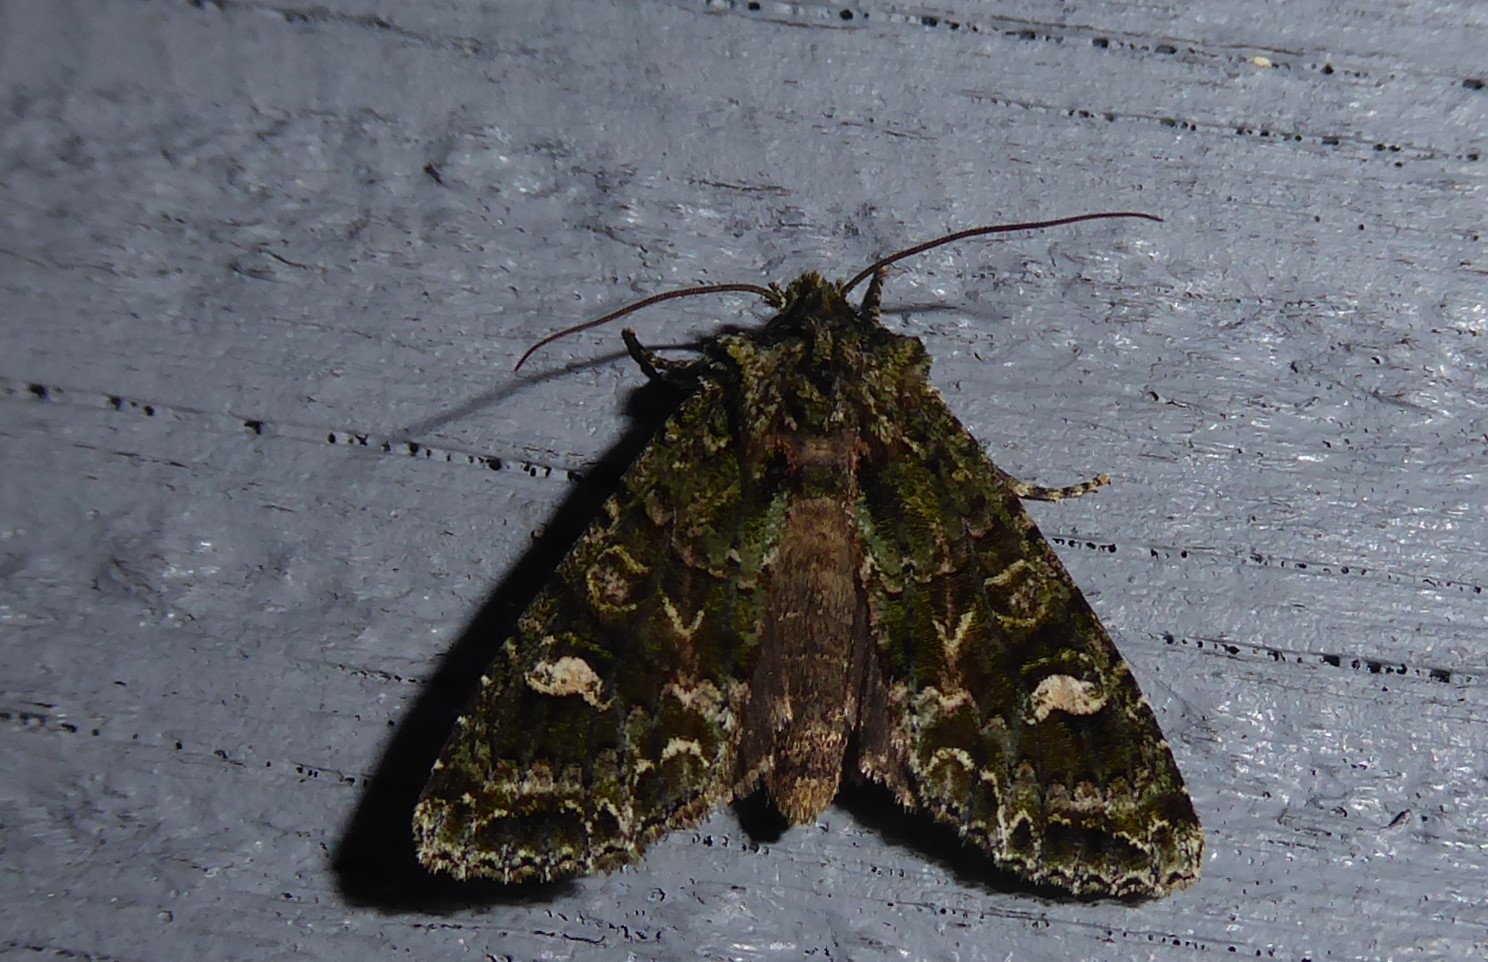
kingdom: Animalia
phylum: Arthropoda
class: Insecta
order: Lepidoptera
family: Noctuidae
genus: Ichneutica
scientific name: Ichneutica
